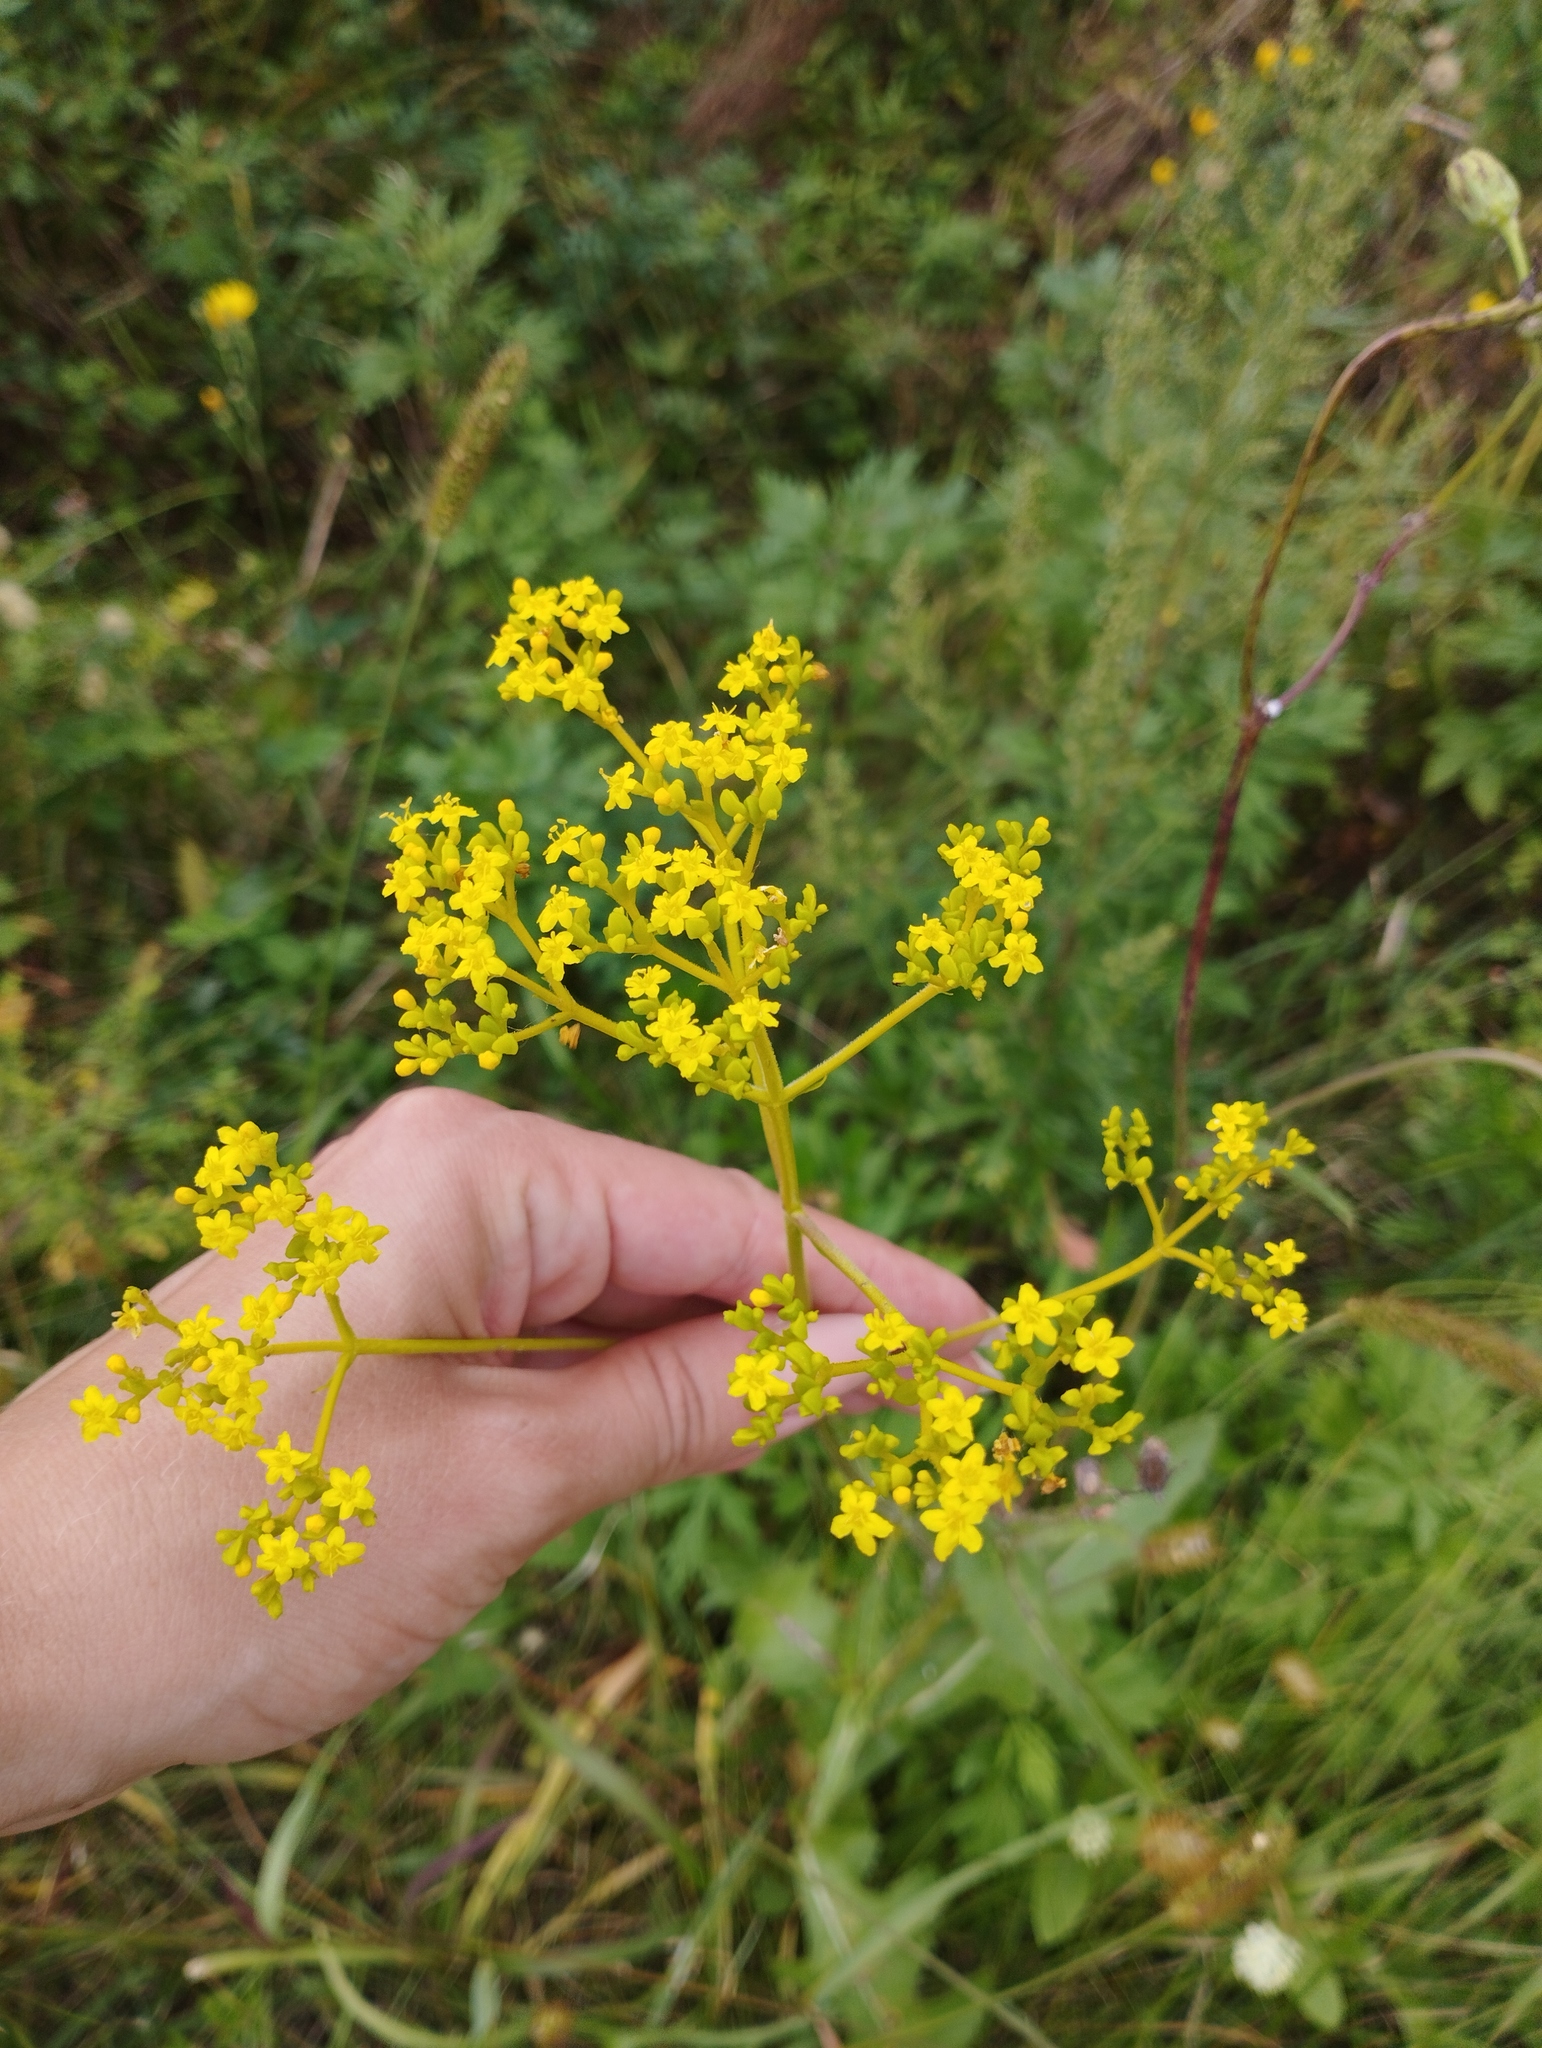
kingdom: Plantae
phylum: Tracheophyta
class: Magnoliopsida
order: Dipsacales
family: Caprifoliaceae
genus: Patrinia
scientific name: Patrinia scabiosifolia
